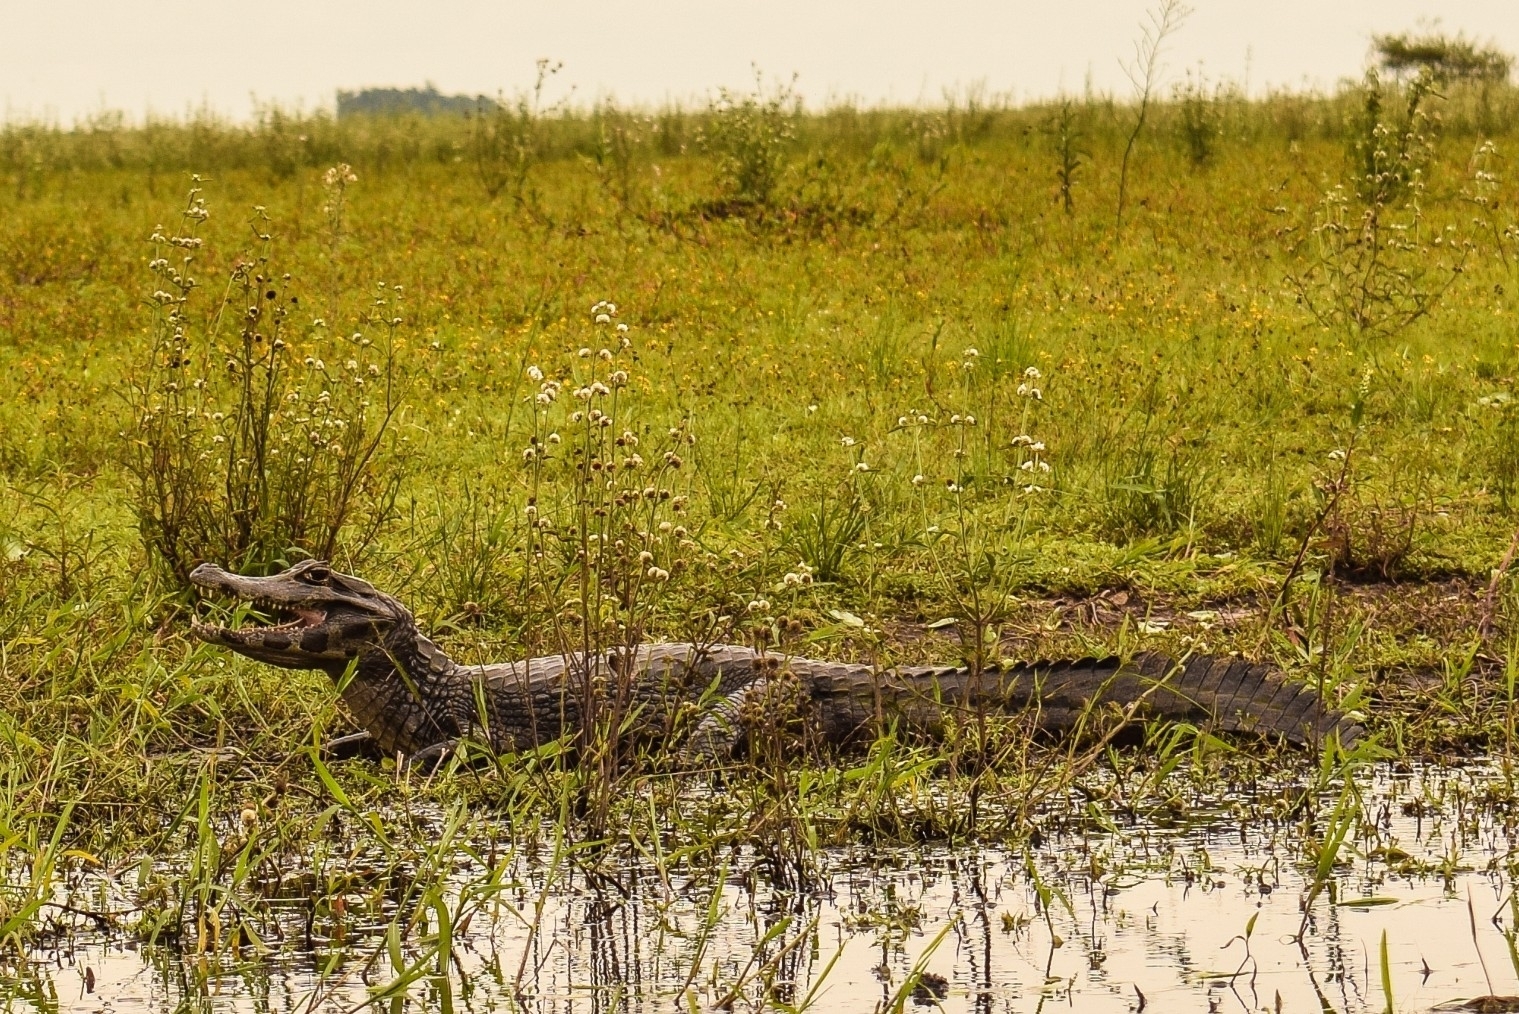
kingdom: Animalia
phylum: Chordata
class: Crocodylia
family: Alligatoridae
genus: Caiman
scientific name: Caiman yacare
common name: Yacare caiman
